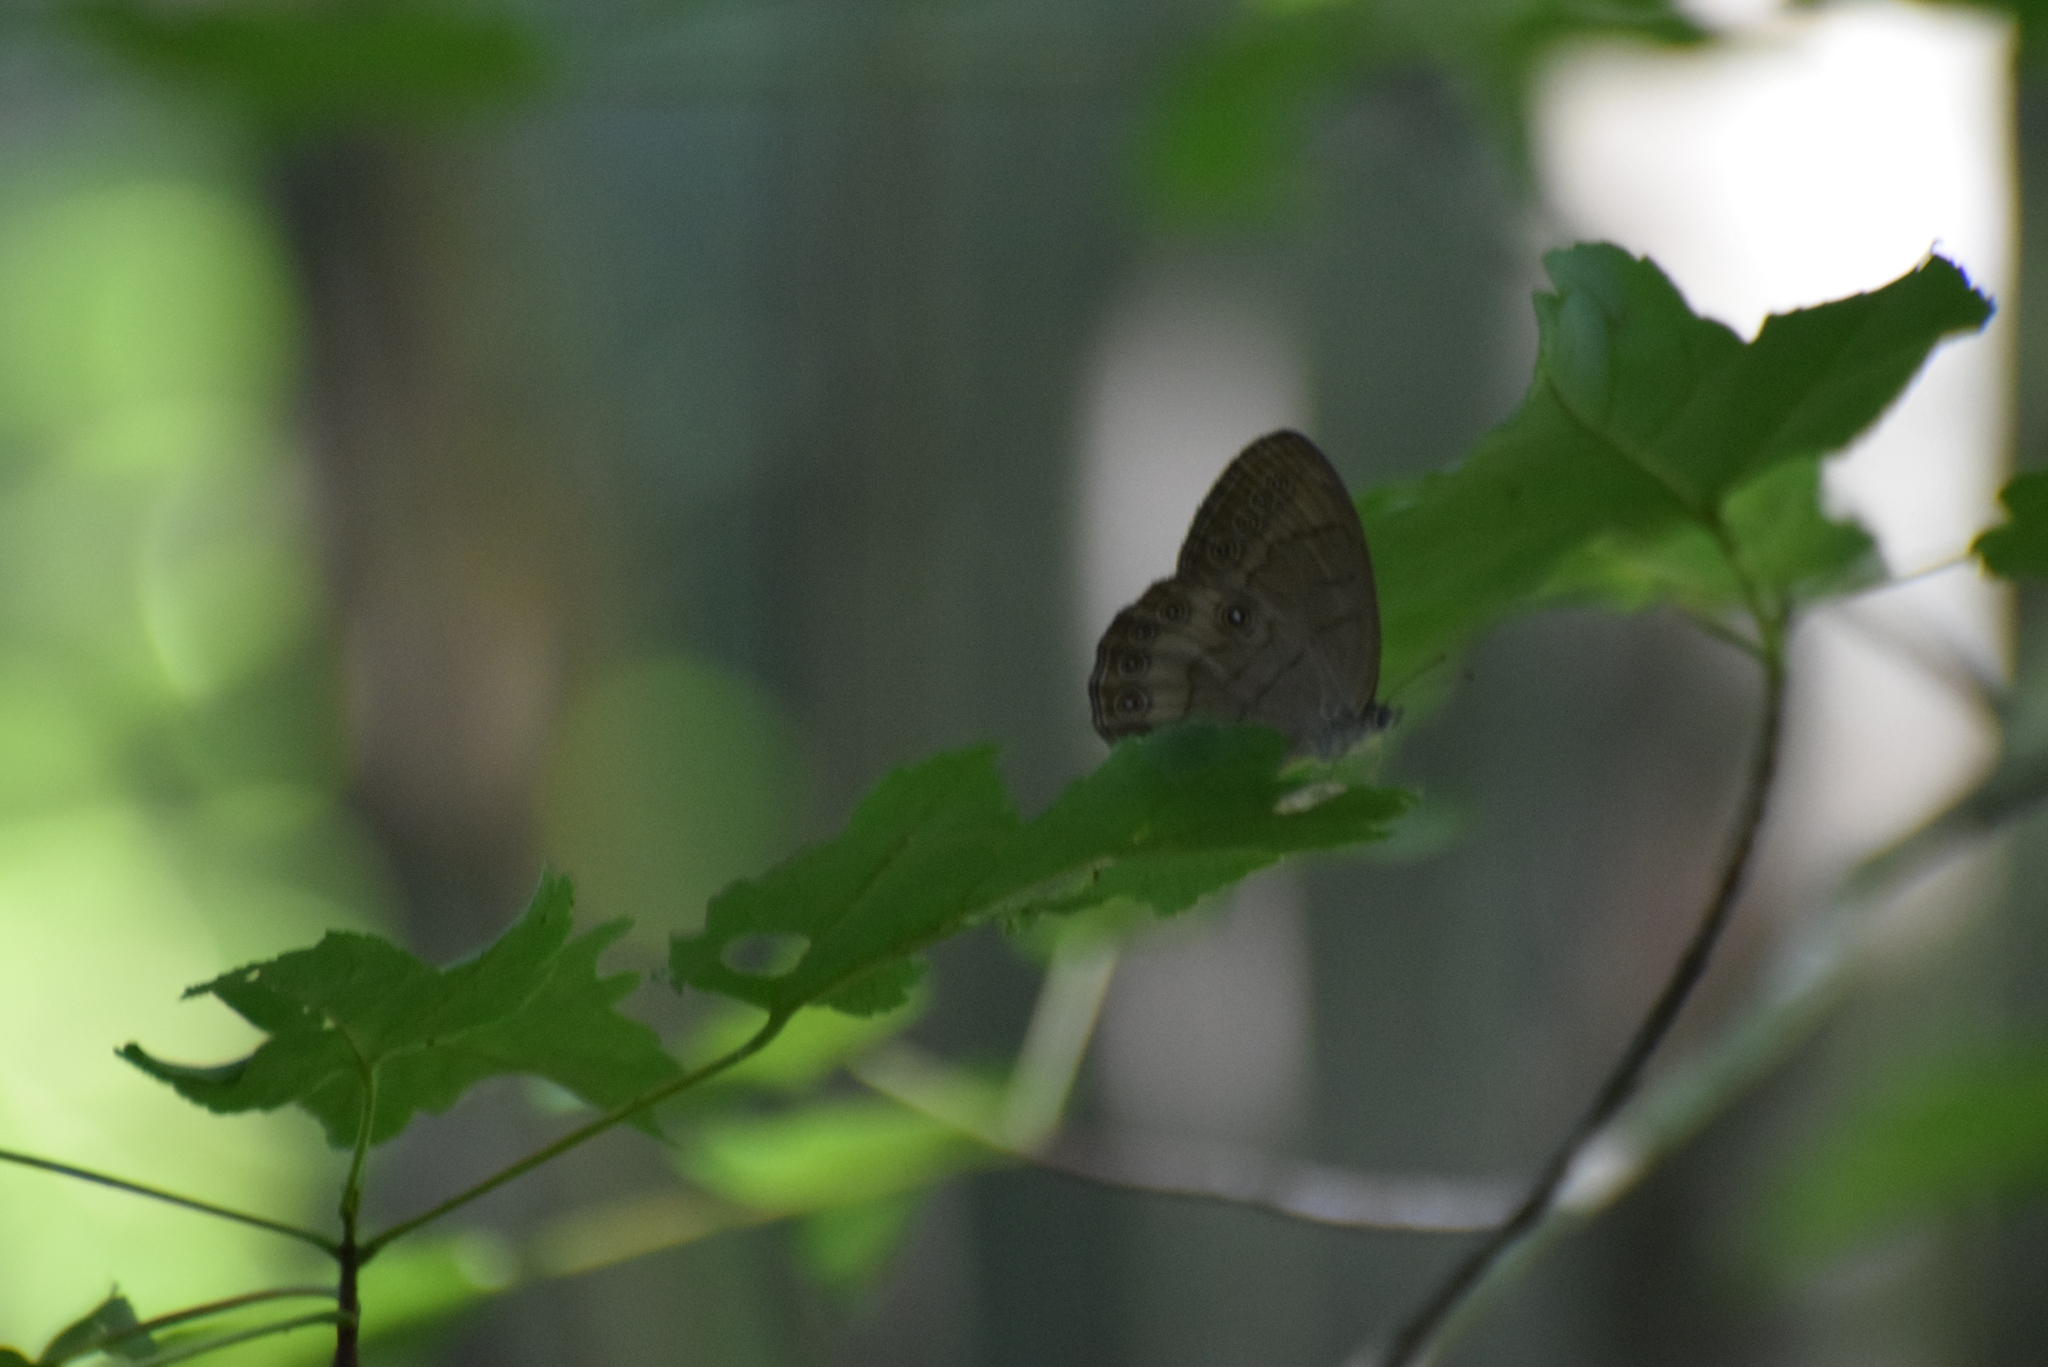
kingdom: Animalia
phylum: Arthropoda
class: Insecta
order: Lepidoptera
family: Nymphalidae
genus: Lethe
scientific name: Lethe eurydice
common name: Eyed brown
